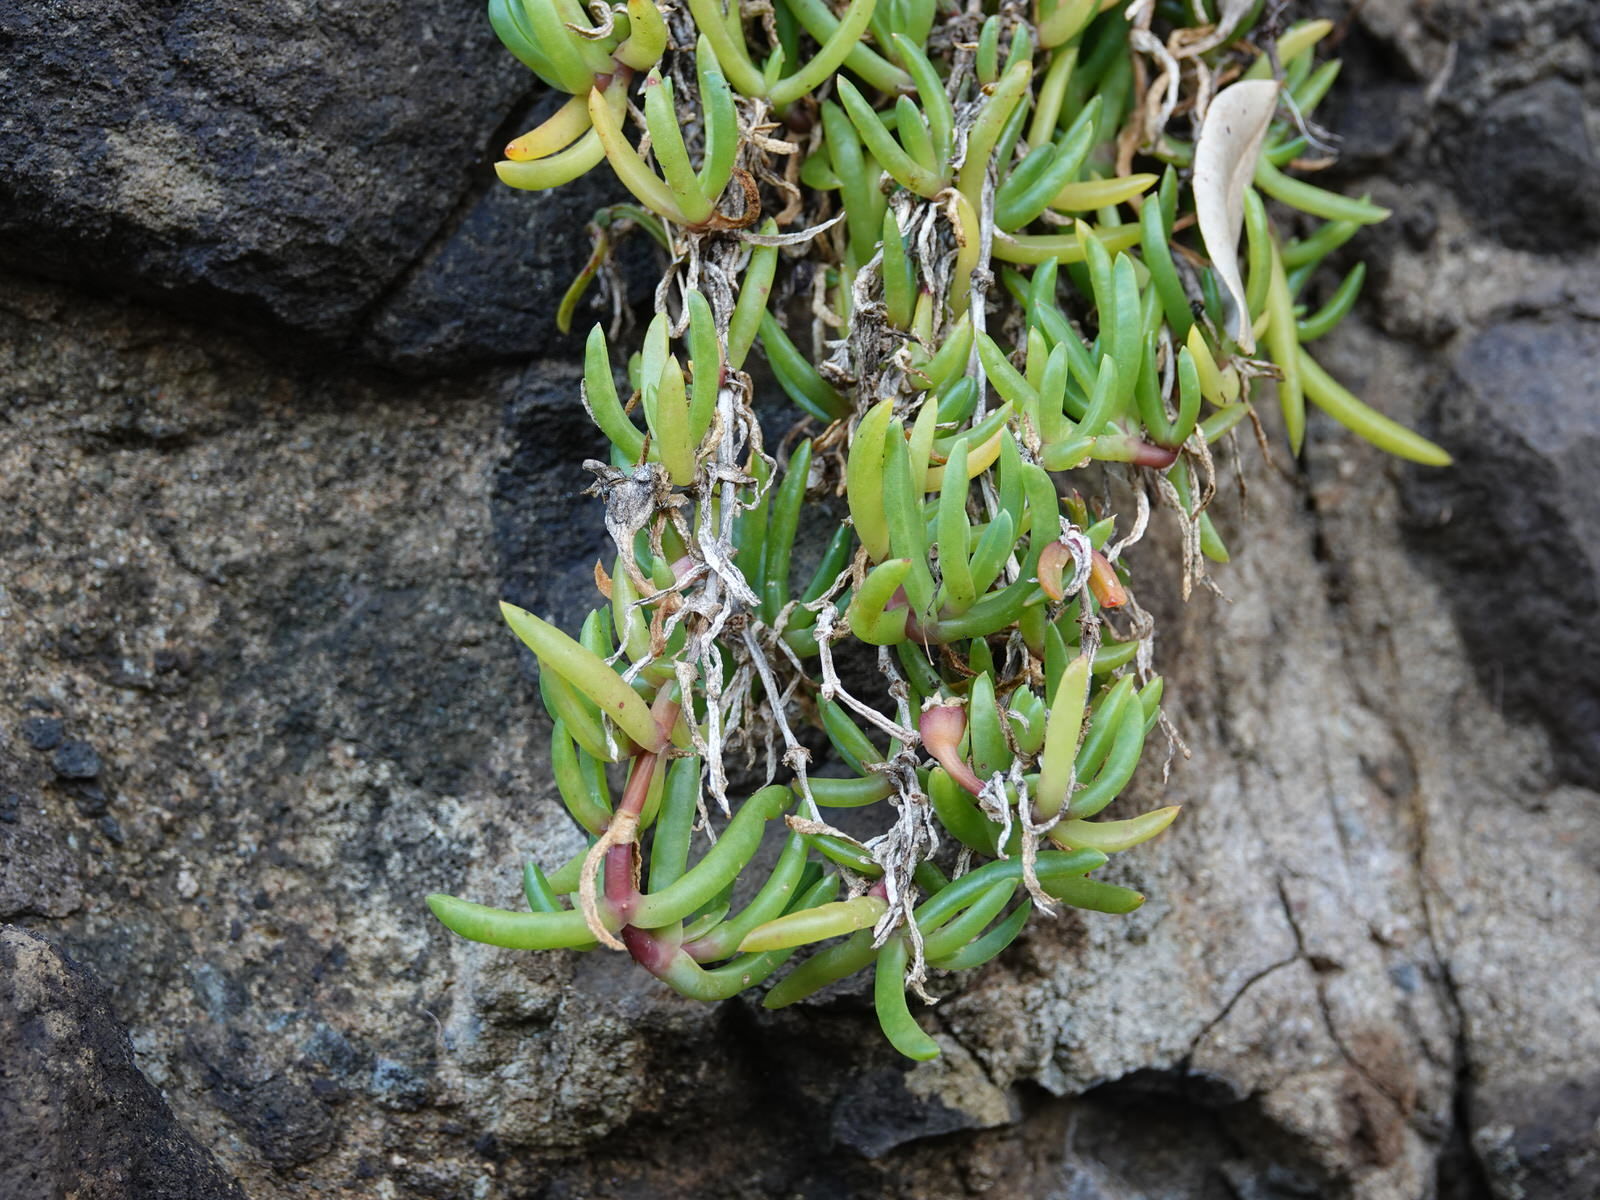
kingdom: Plantae
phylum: Tracheophyta
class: Magnoliopsida
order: Caryophyllales
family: Aizoaceae
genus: Disphyma
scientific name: Disphyma australe
